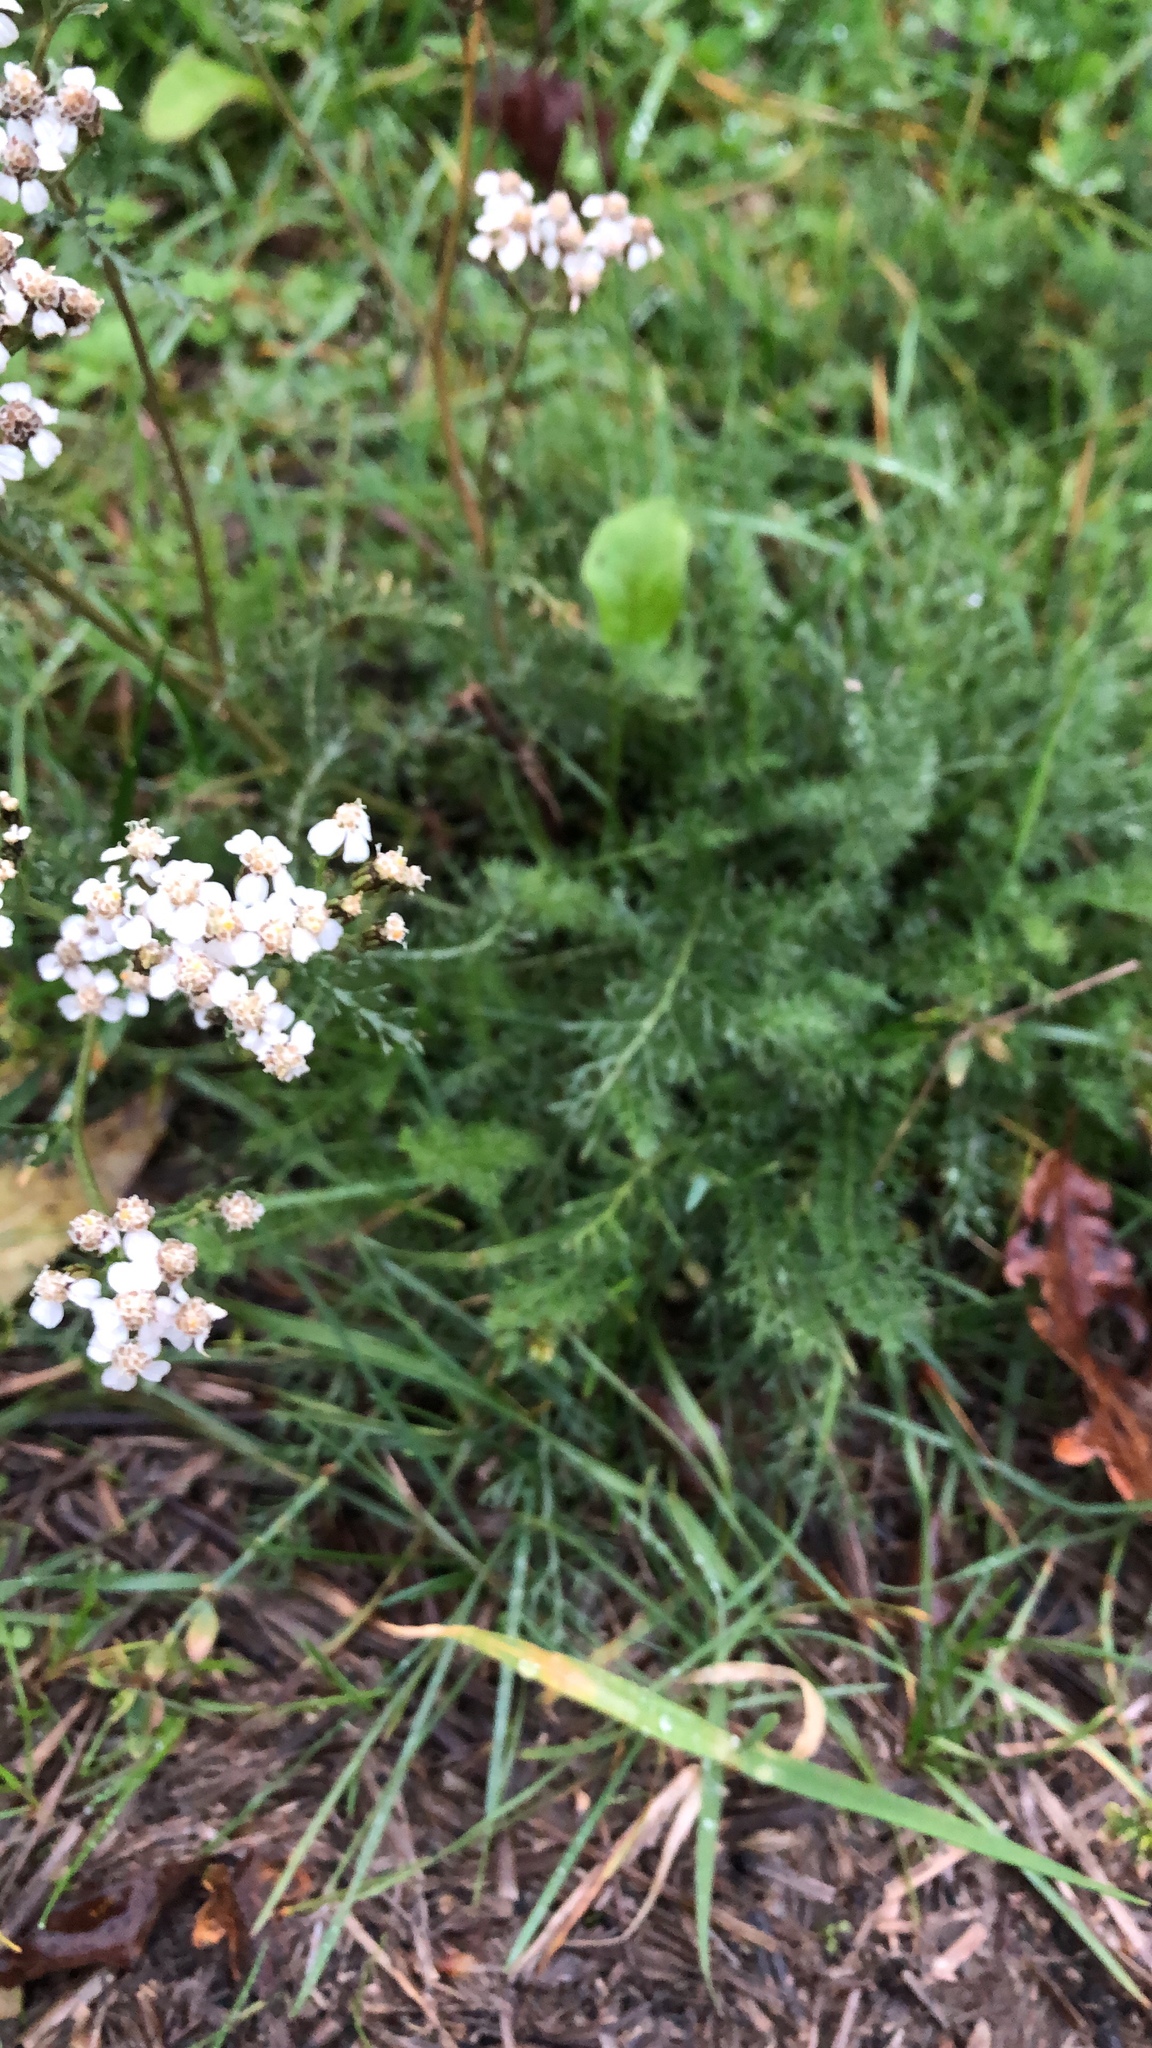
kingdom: Plantae
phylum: Tracheophyta
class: Magnoliopsida
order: Asterales
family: Asteraceae
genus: Achillea
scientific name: Achillea millefolium
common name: Yarrow
